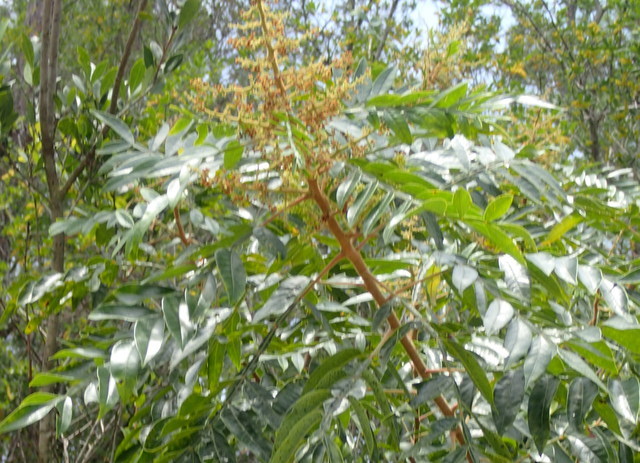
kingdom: Plantae
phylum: Tracheophyta
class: Magnoliopsida
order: Sapindales
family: Anacardiaceae
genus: Rhus
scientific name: Rhus copallina
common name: Shining sumac
